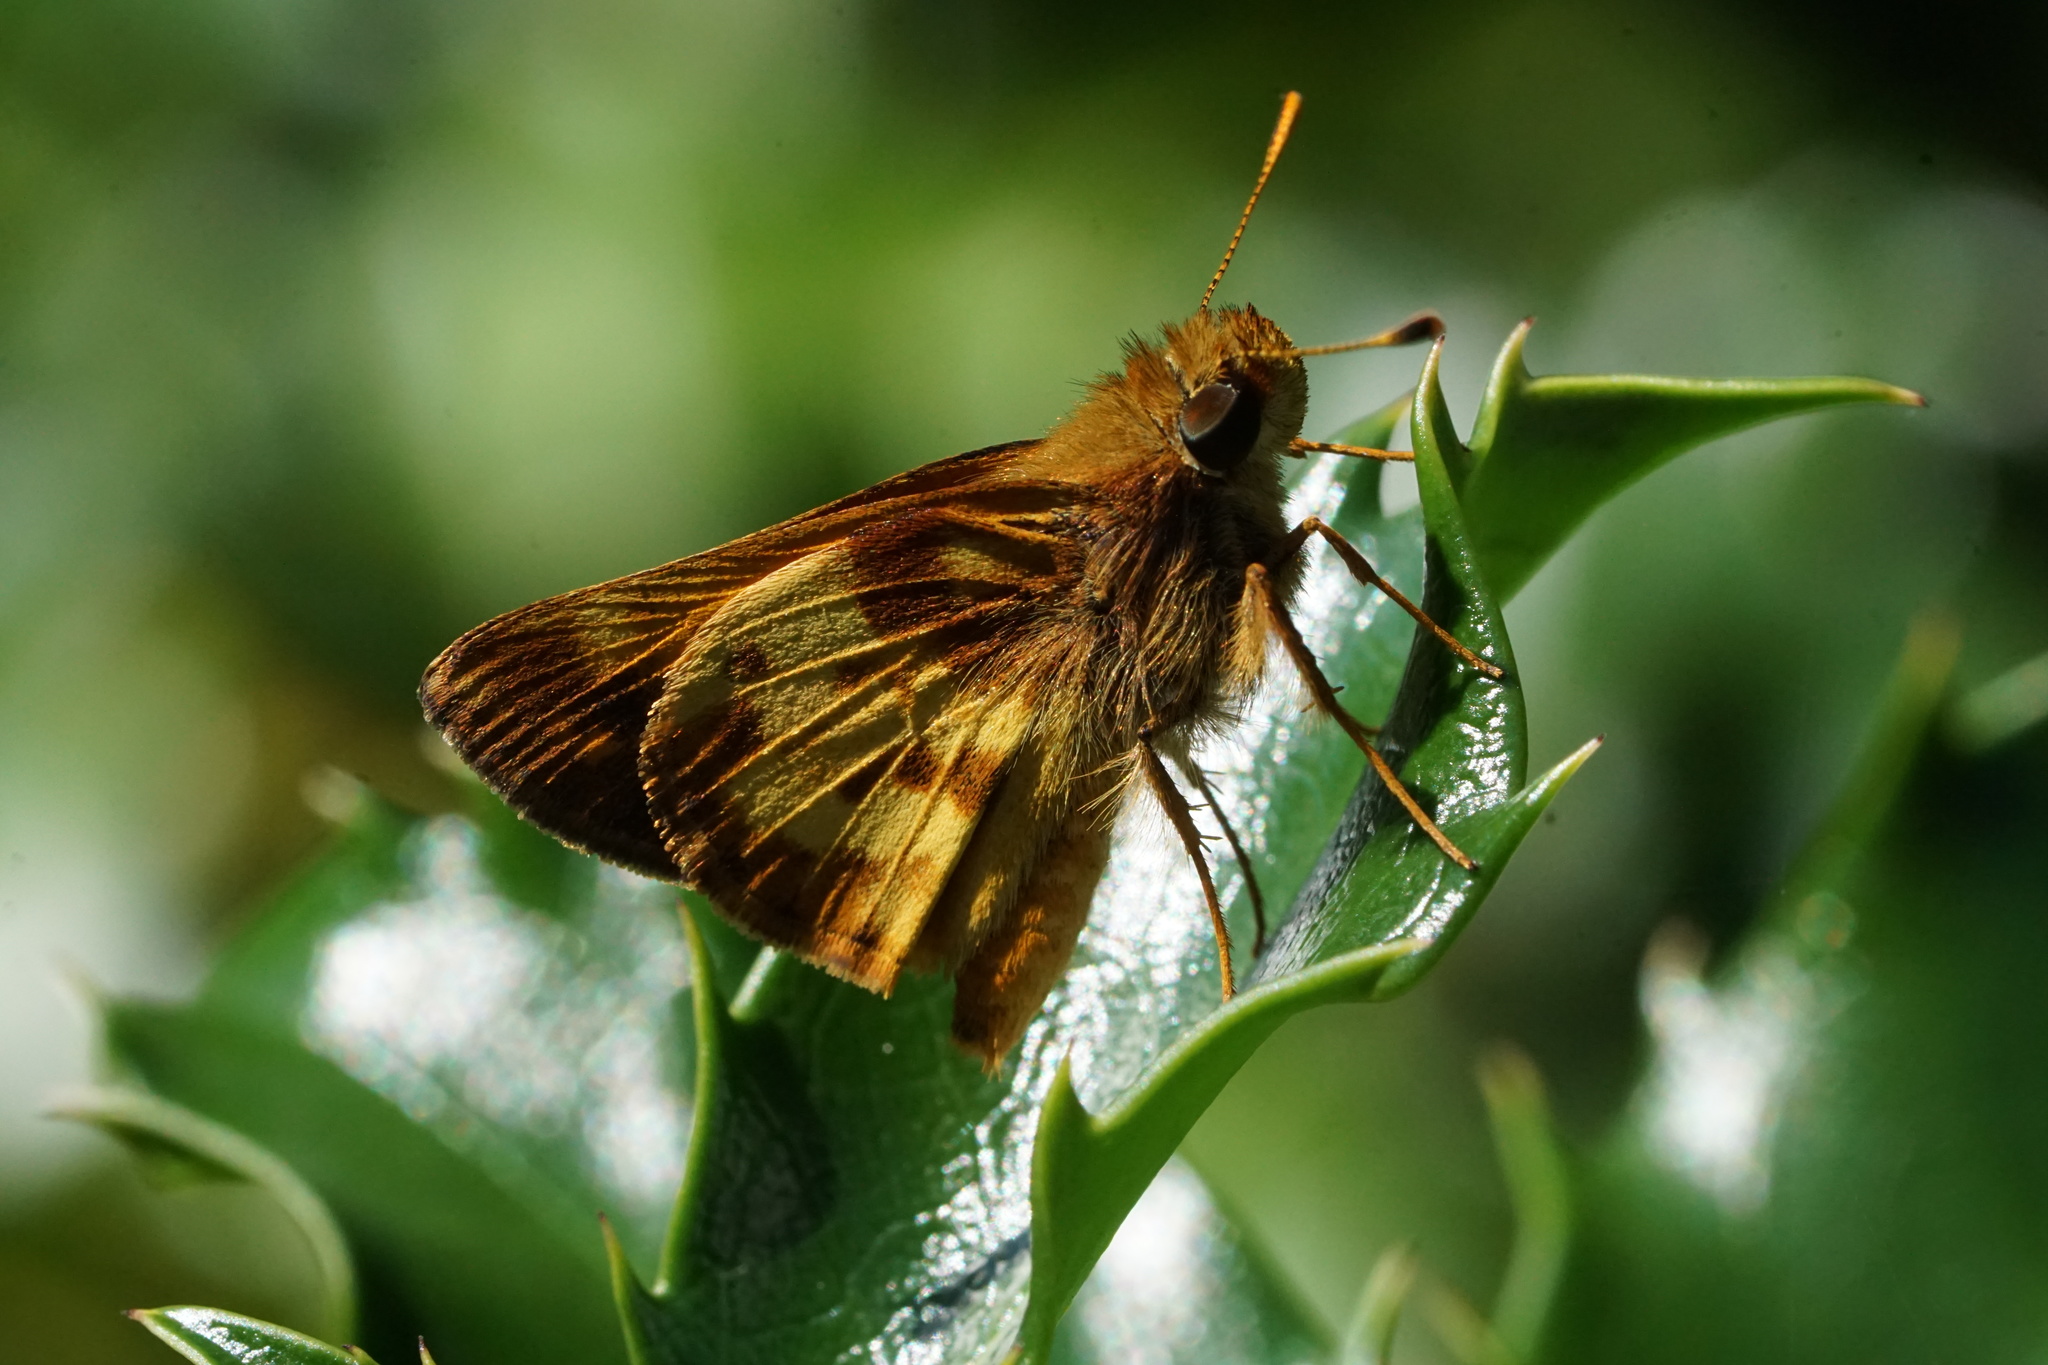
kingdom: Animalia
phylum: Arthropoda
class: Insecta
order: Lepidoptera
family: Hesperiidae
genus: Lon
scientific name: Lon zabulon
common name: Zabulon skipper
